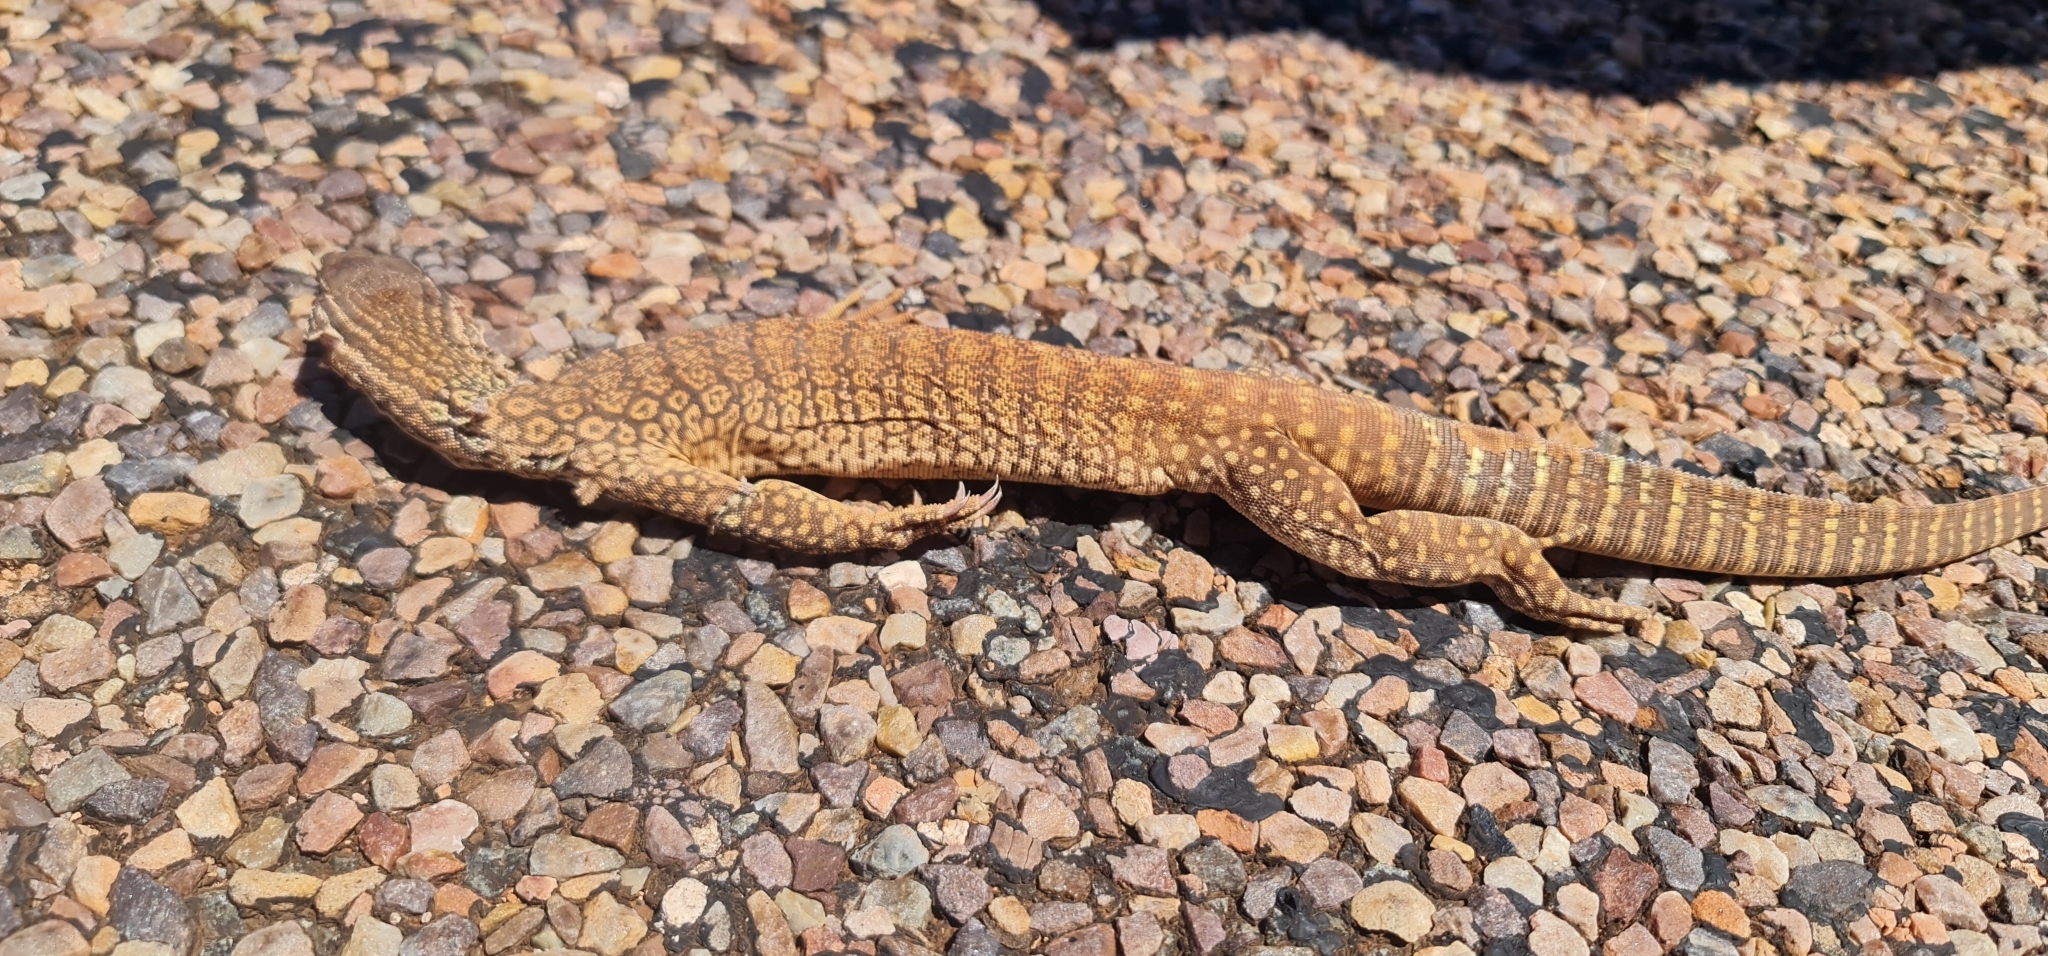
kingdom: Animalia
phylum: Chordata
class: Squamata
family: Varanidae
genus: Varanus
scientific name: Varanus gouldii
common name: Gould's goanna
